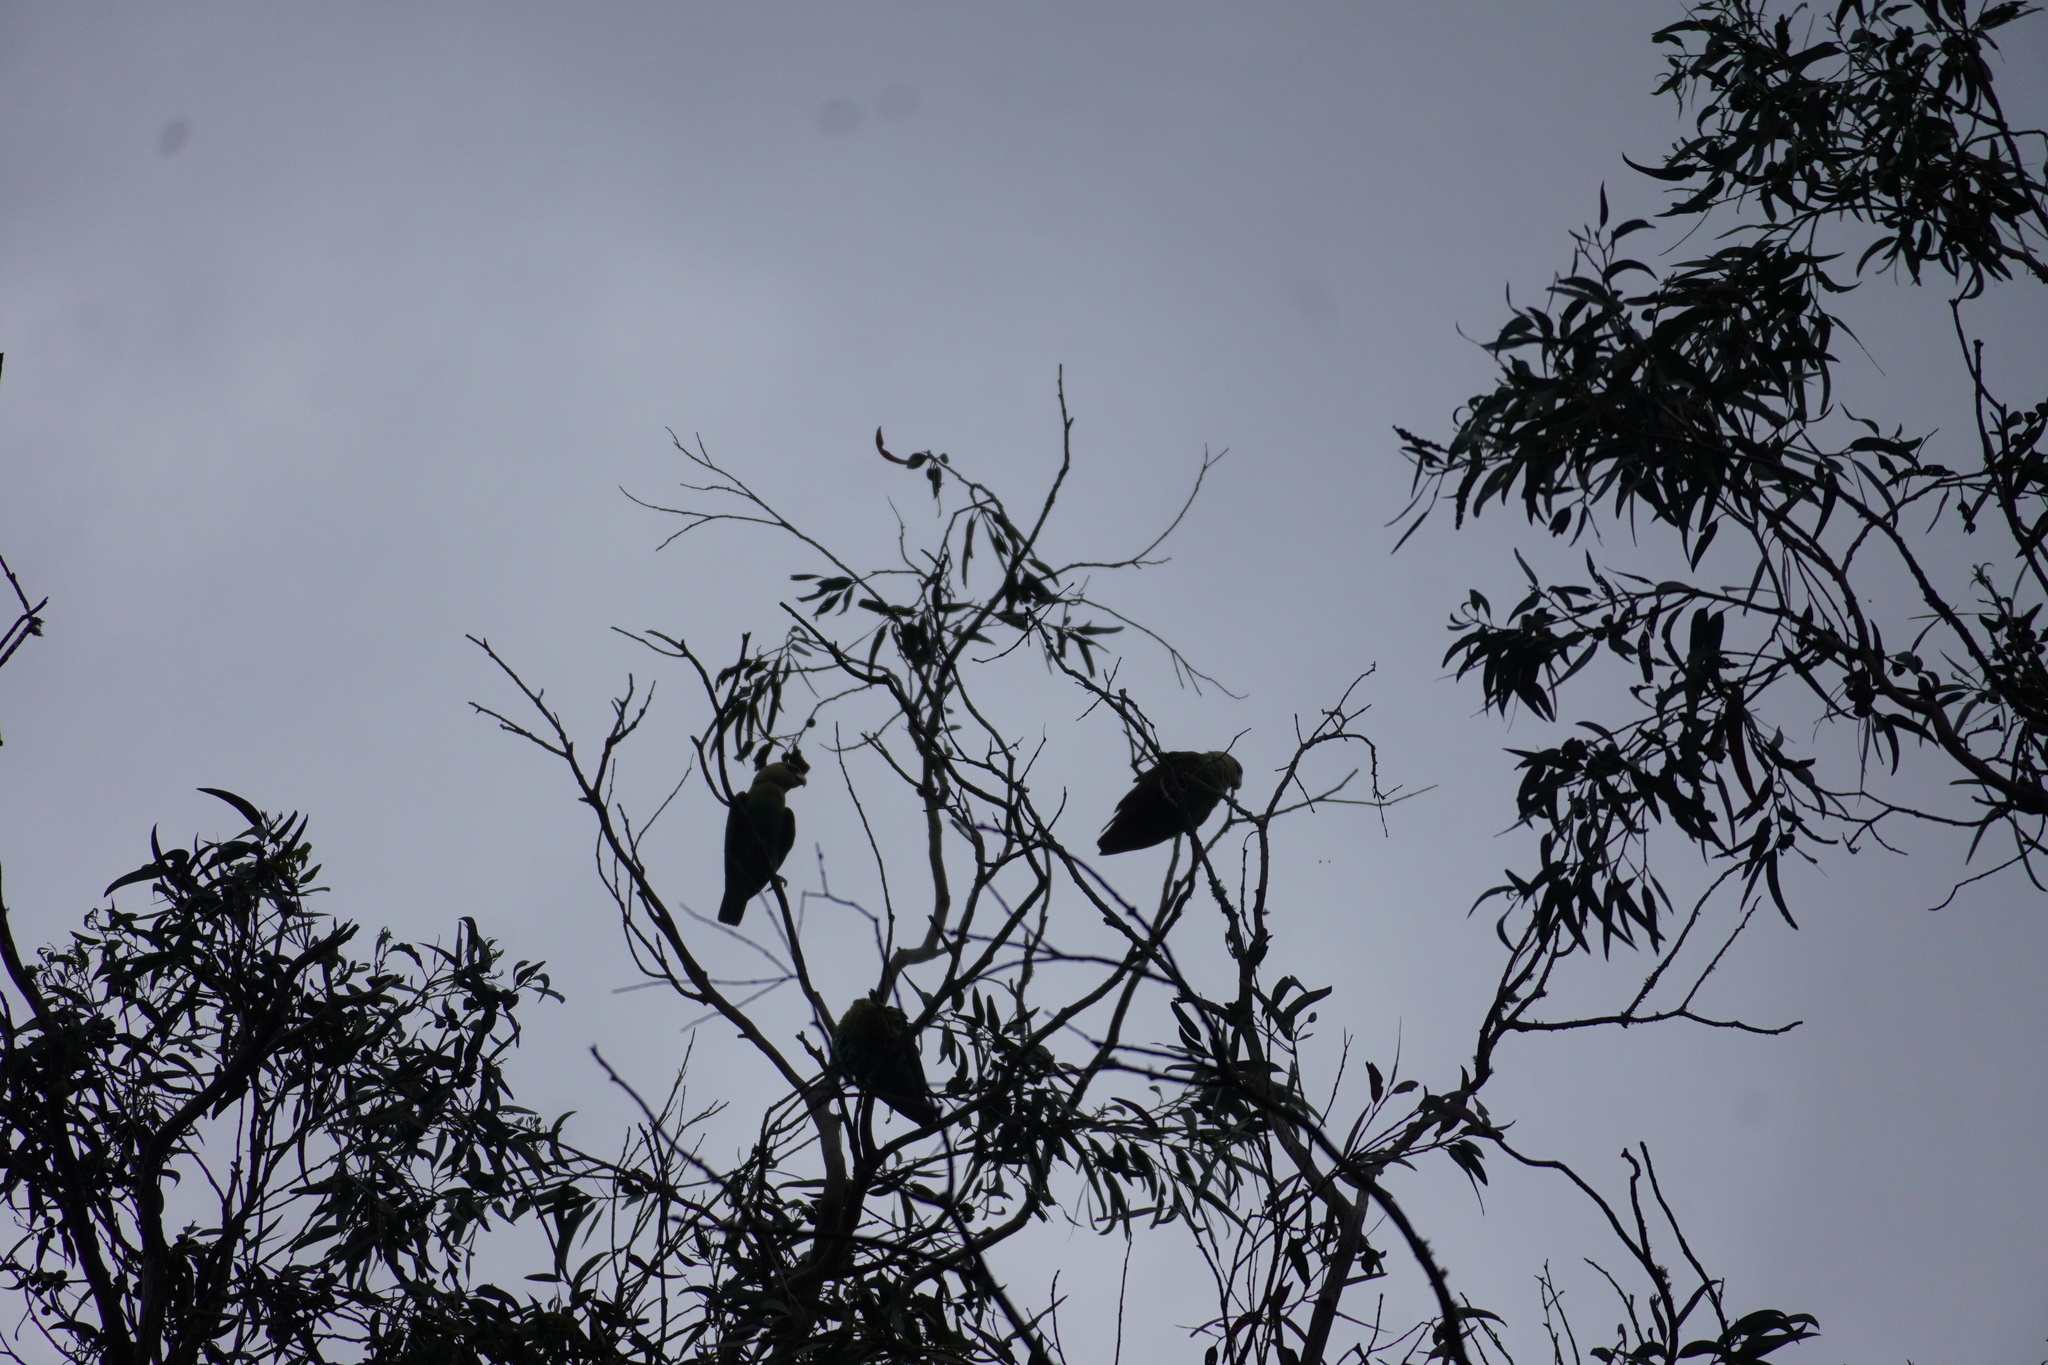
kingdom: Animalia
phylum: Chordata
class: Aves
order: Psittaciformes
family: Psittacidae
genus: Poicephalus
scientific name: Poicephalus robustus
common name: Cape parrot
